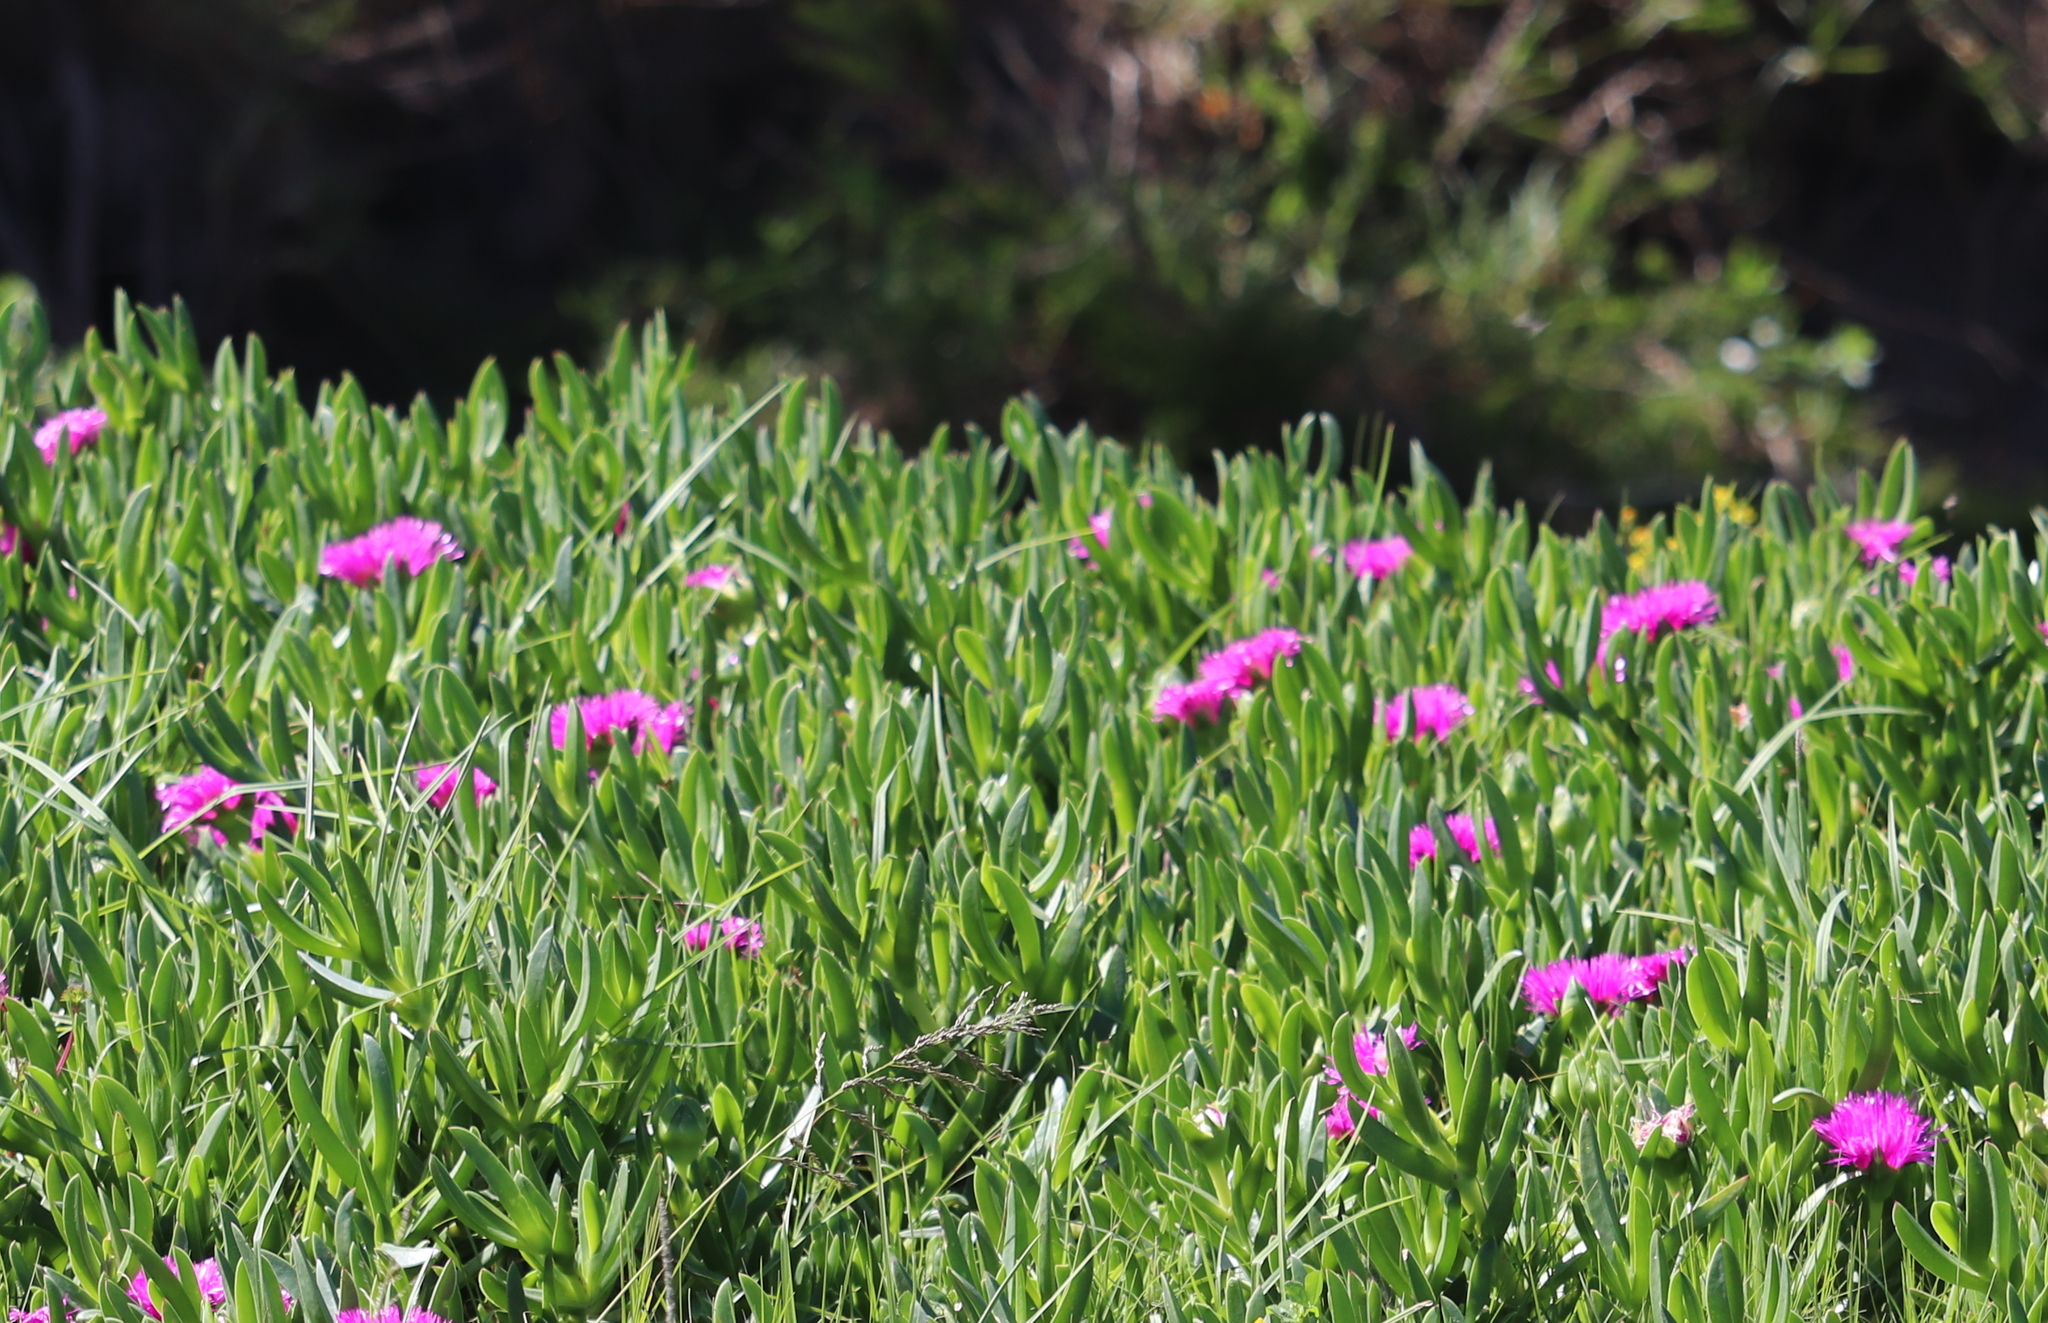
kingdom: Plantae
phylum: Tracheophyta
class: Magnoliopsida
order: Caryophyllales
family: Aizoaceae
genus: Carpobrotus
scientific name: Carpobrotus deliciosus
